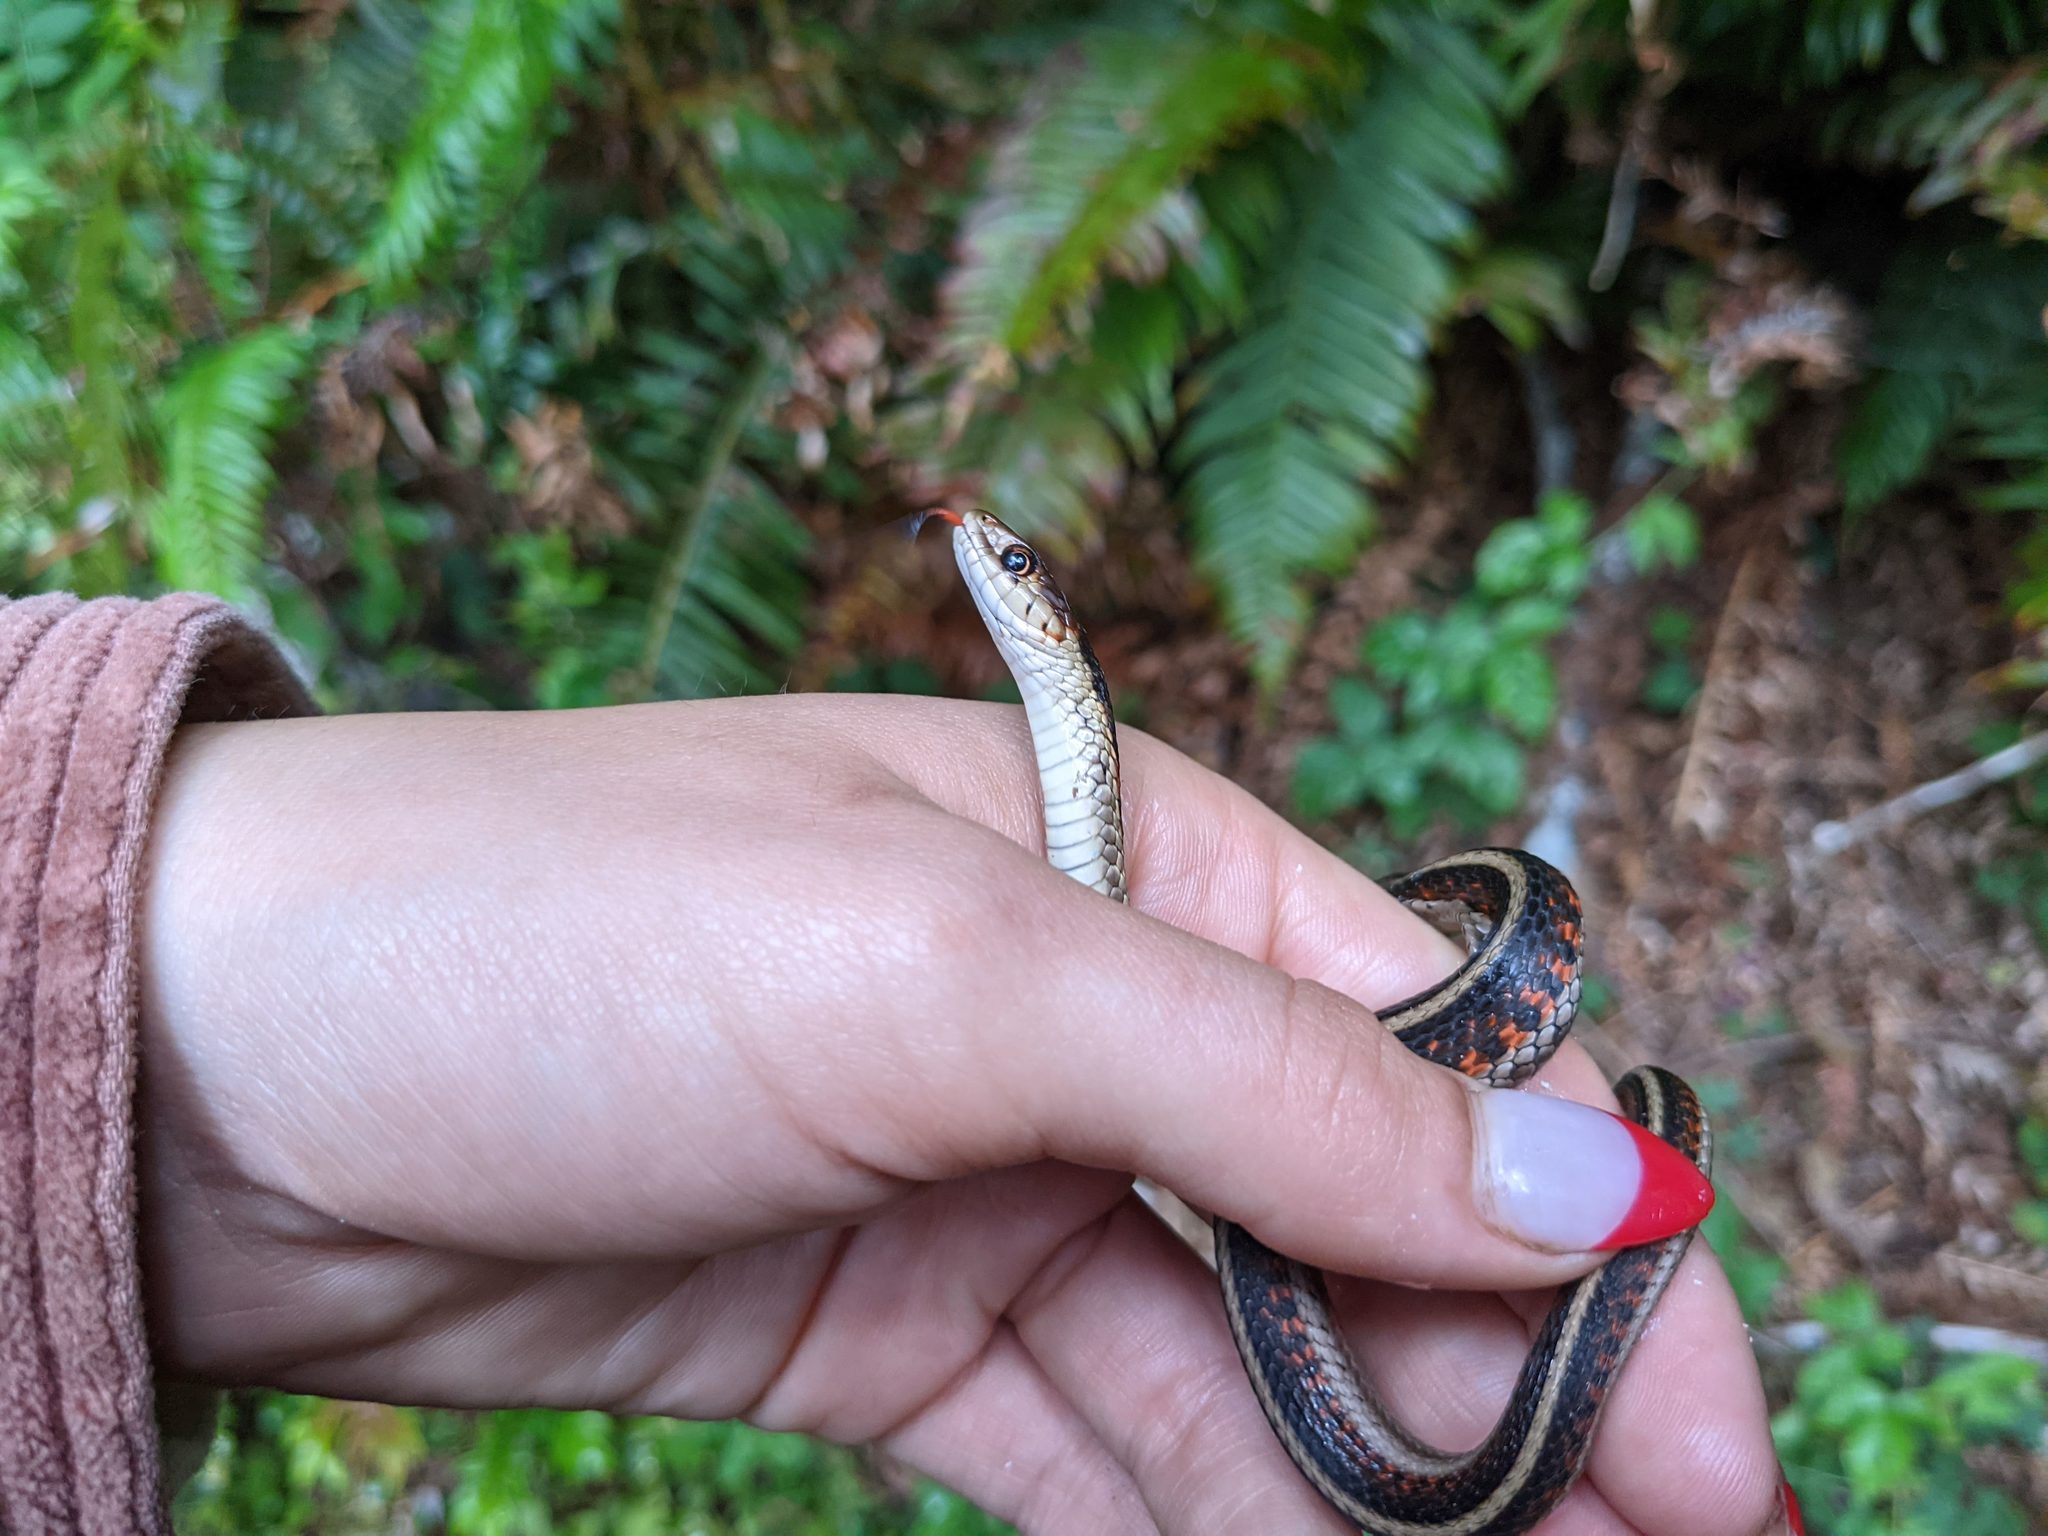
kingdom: Animalia
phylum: Chordata
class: Squamata
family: Colubridae
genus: Thamnophis
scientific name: Thamnophis sirtalis
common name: Common garter snake
